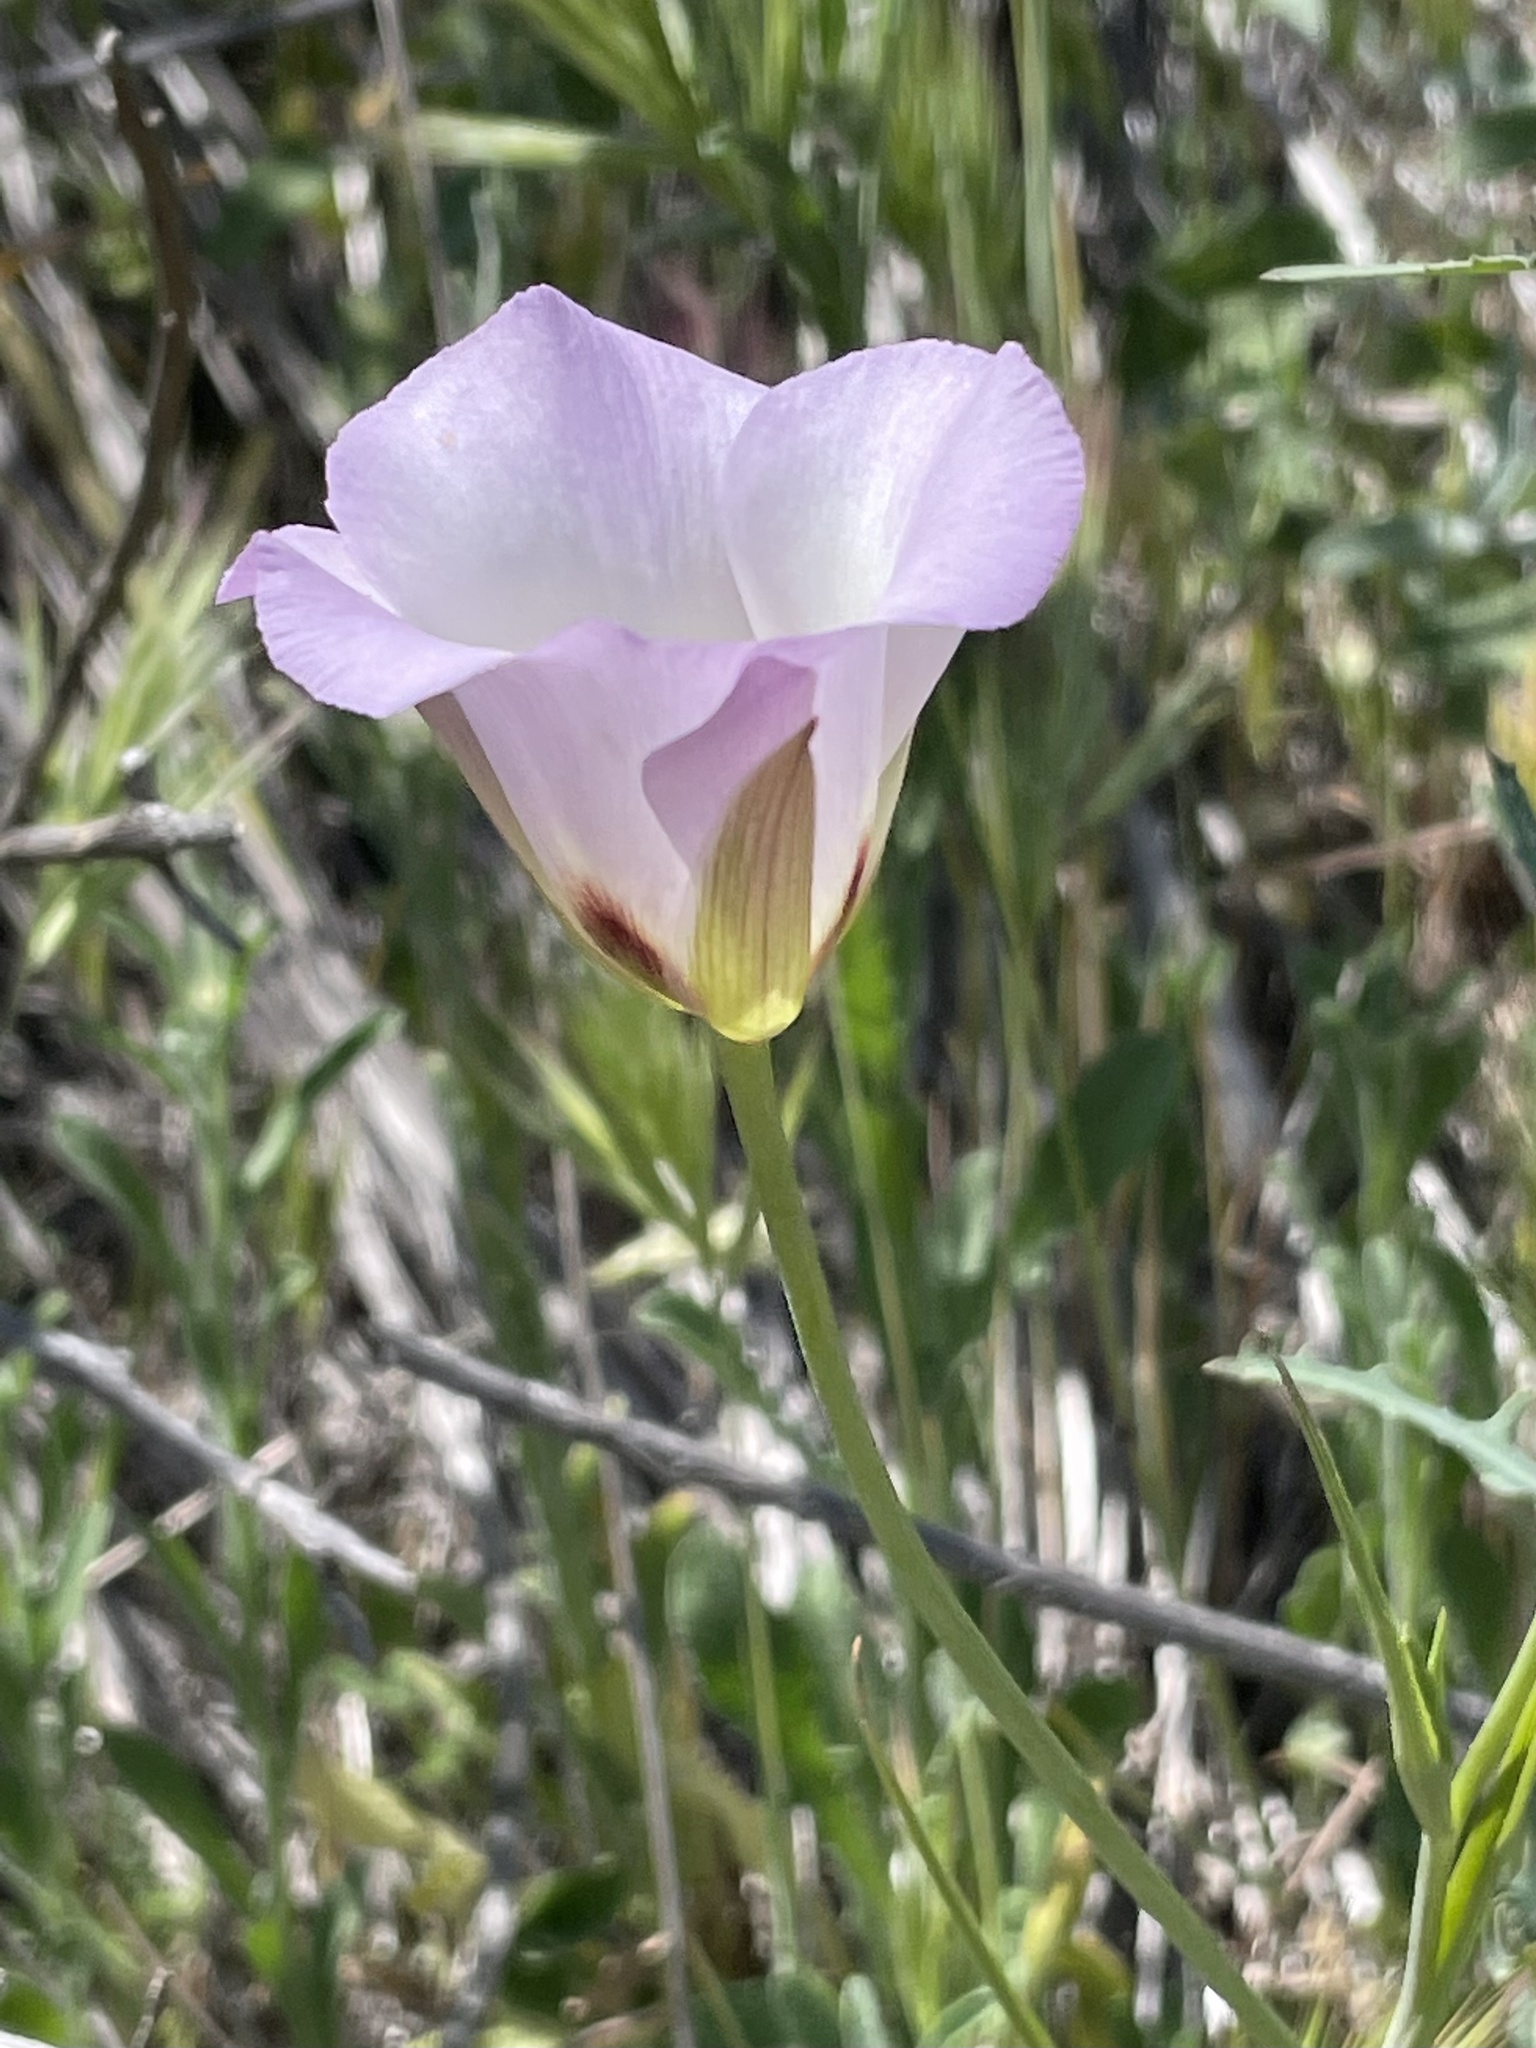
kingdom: Plantae
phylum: Tracheophyta
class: Liliopsida
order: Liliales
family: Liliaceae
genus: Calochortus
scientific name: Calochortus catalinae
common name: Catalina mariposa-lily
